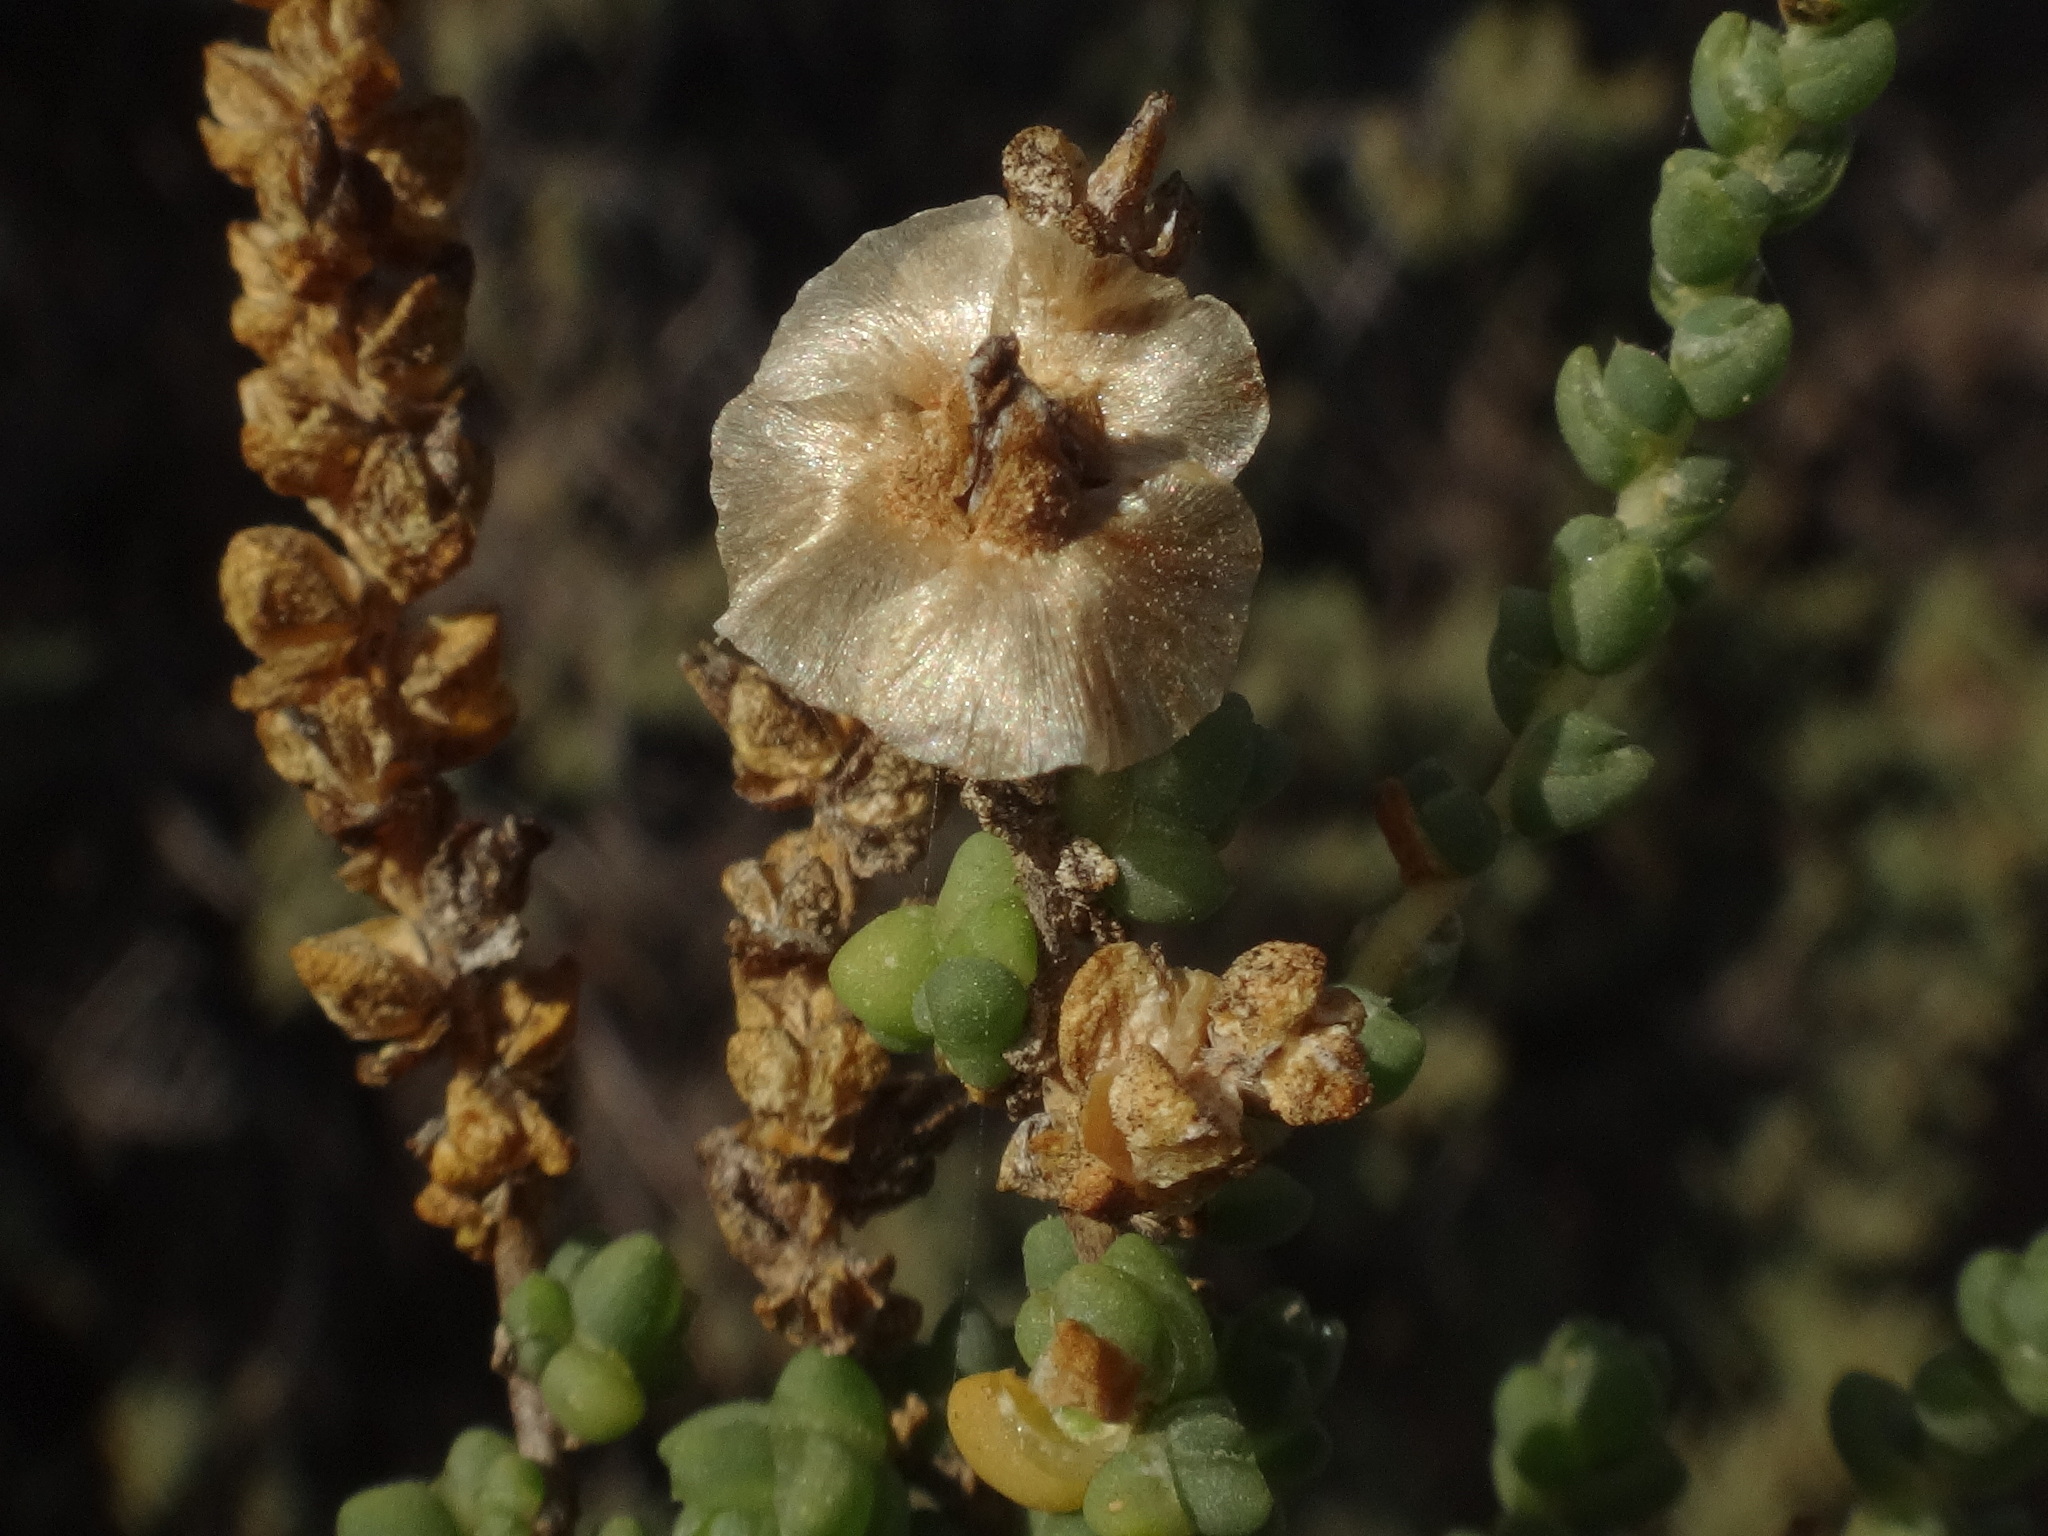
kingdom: Plantae
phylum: Tracheophyta
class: Magnoliopsida
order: Caryophyllales
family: Amaranthaceae
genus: Nitrosalsola
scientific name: Nitrosalsola vermiculata
